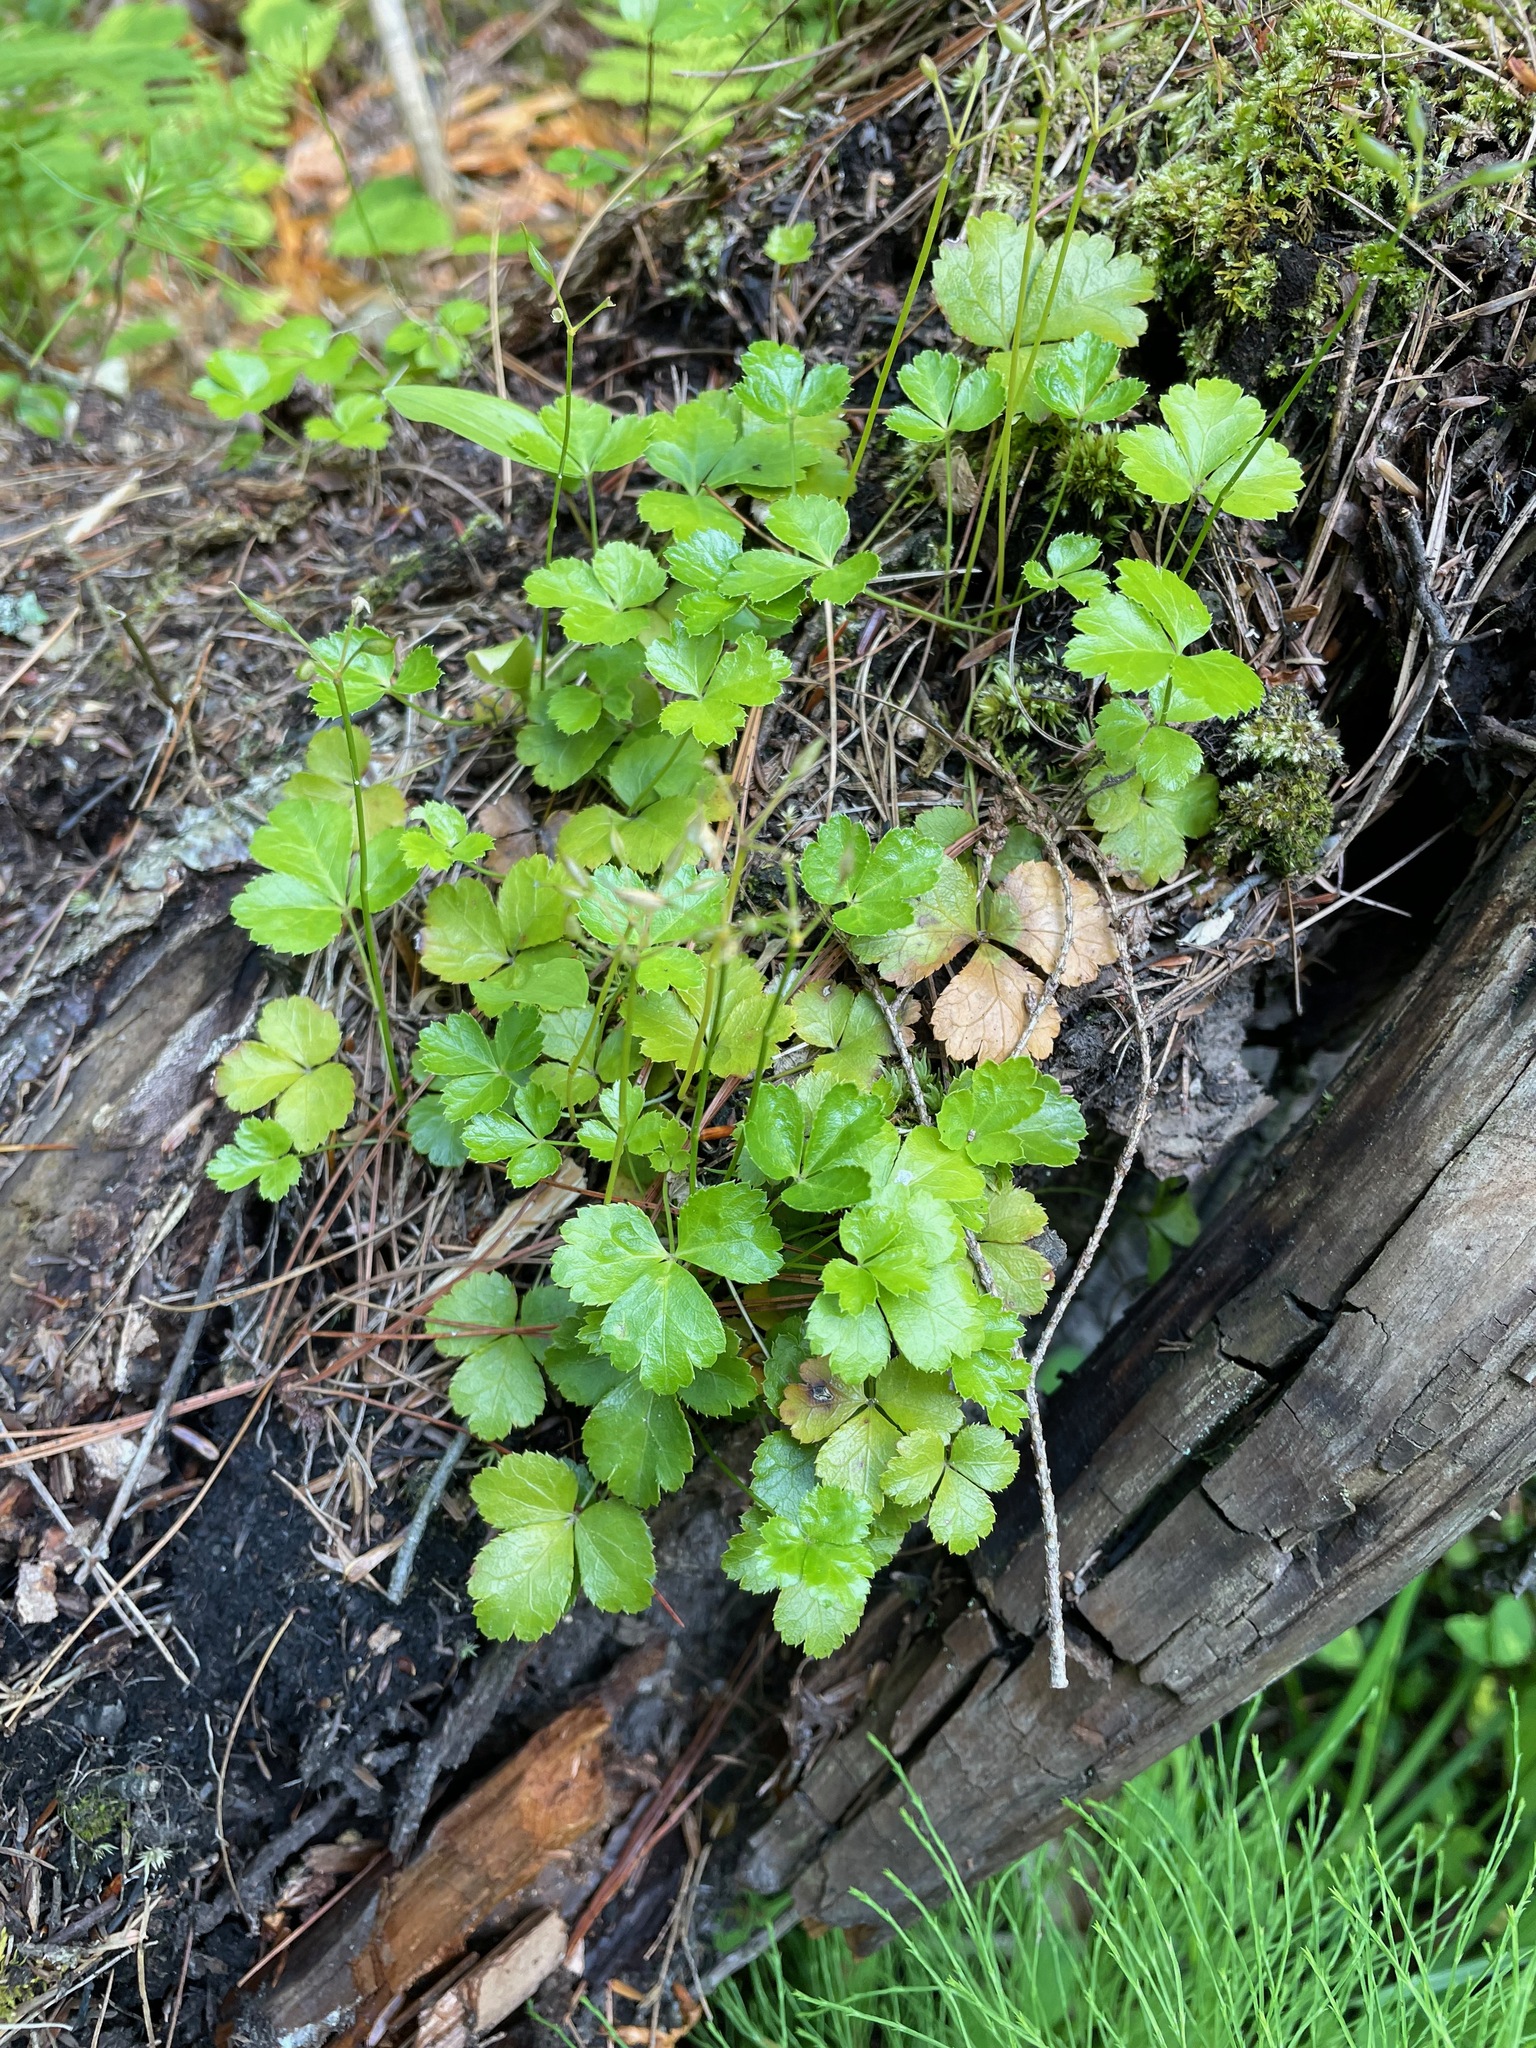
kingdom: Plantae
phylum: Tracheophyta
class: Magnoliopsida
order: Ranunculales
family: Ranunculaceae
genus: Coptis
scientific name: Coptis trifolia
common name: Canker-root
